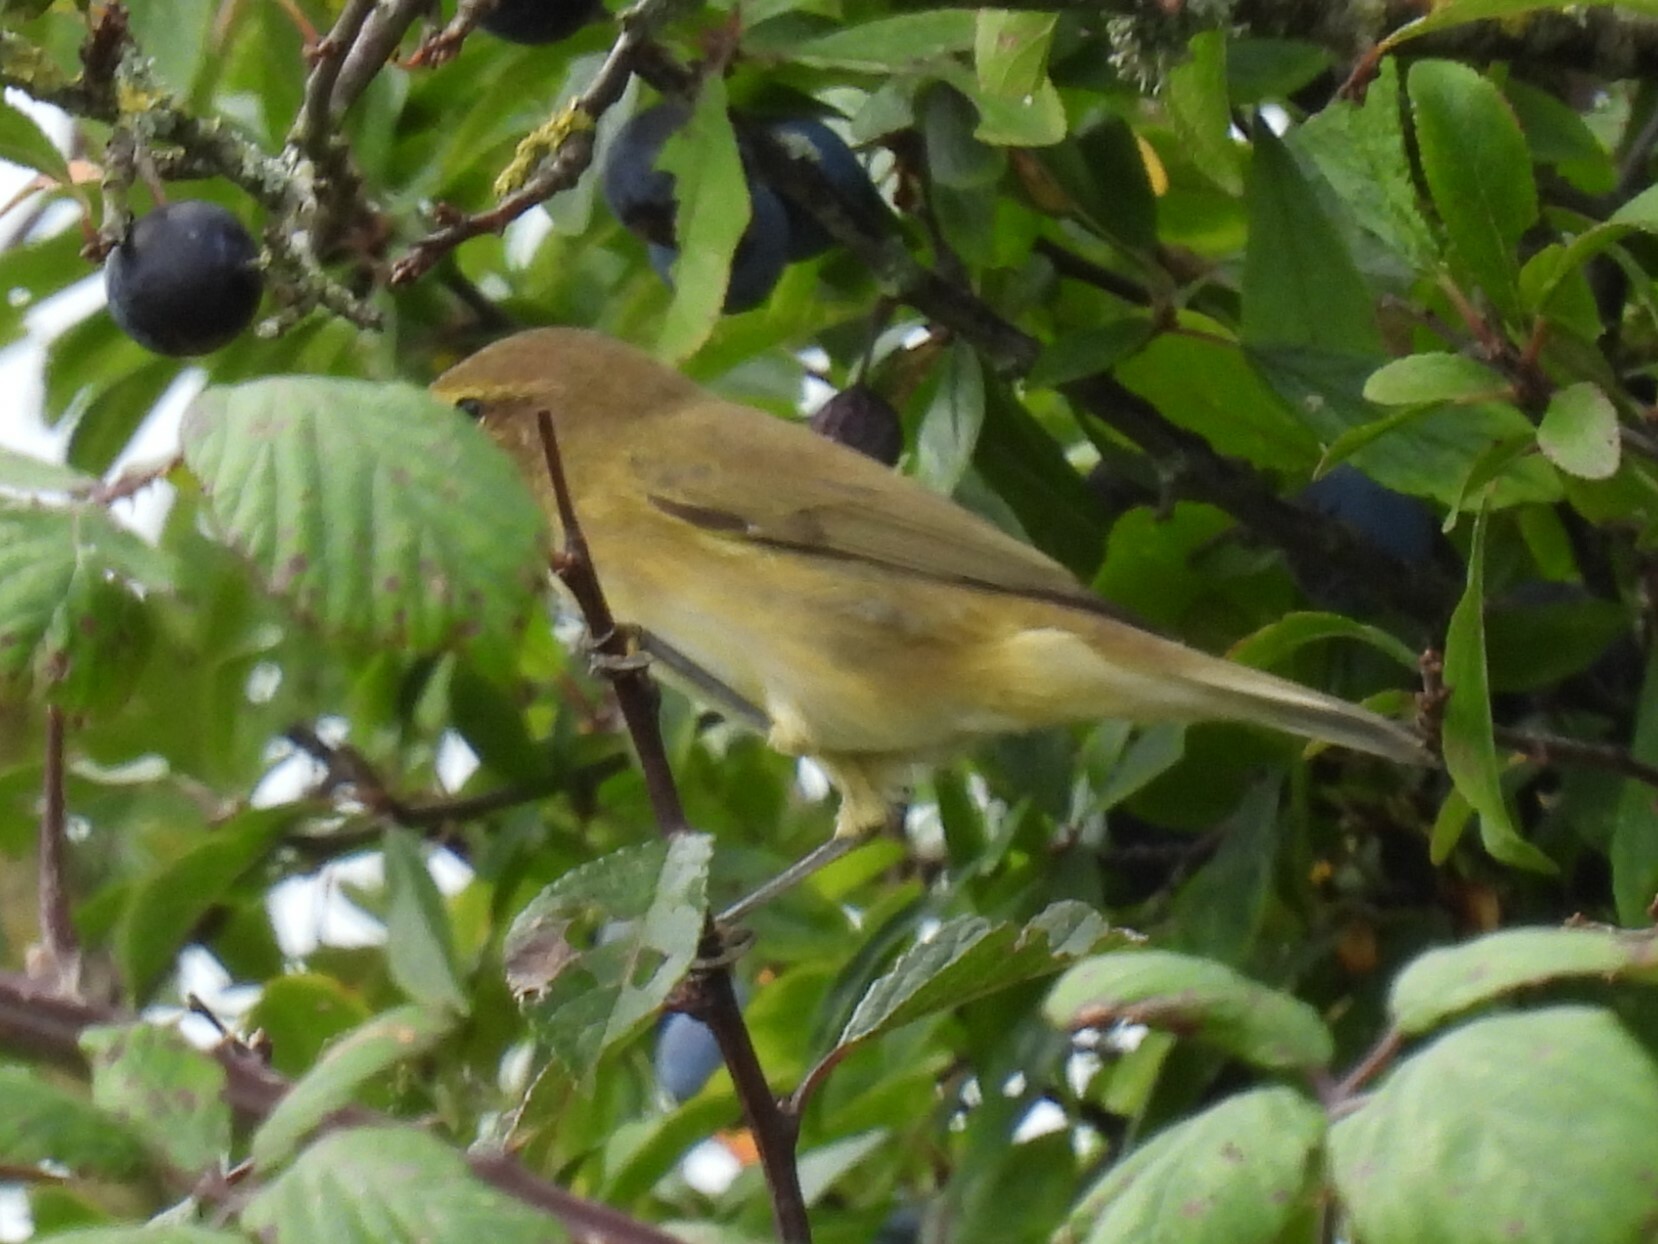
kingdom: Animalia
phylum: Chordata
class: Aves
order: Passeriformes
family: Phylloscopidae
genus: Phylloscopus
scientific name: Phylloscopus collybita
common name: Common chiffchaff
